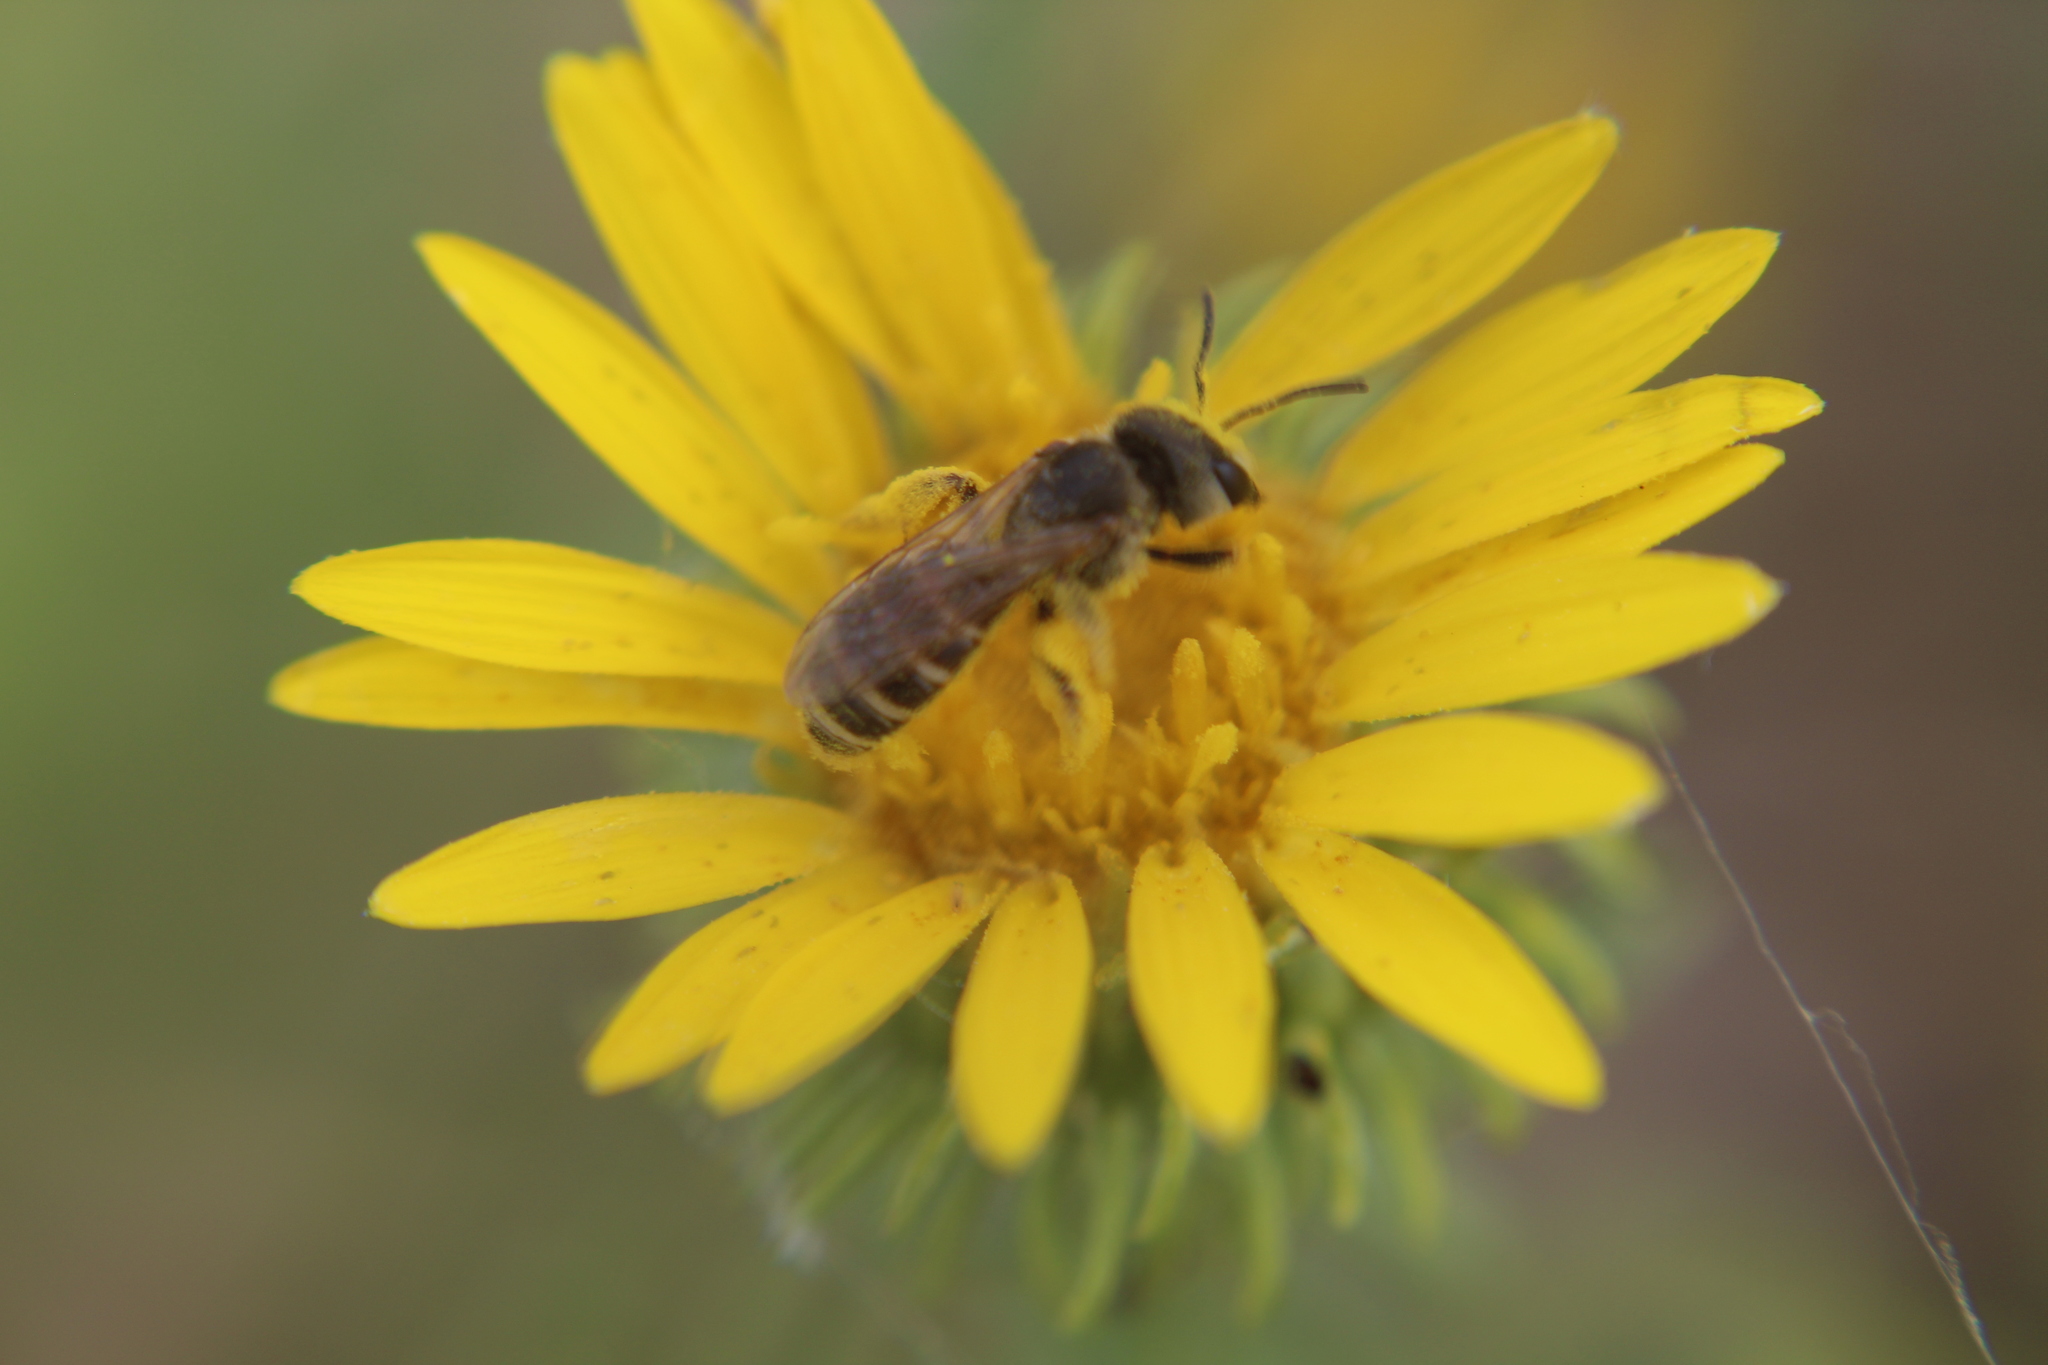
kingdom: Animalia
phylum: Arthropoda
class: Insecta
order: Hymenoptera
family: Halictidae
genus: Halictus
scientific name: Halictus ligatus
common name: Ligated furrow bee
